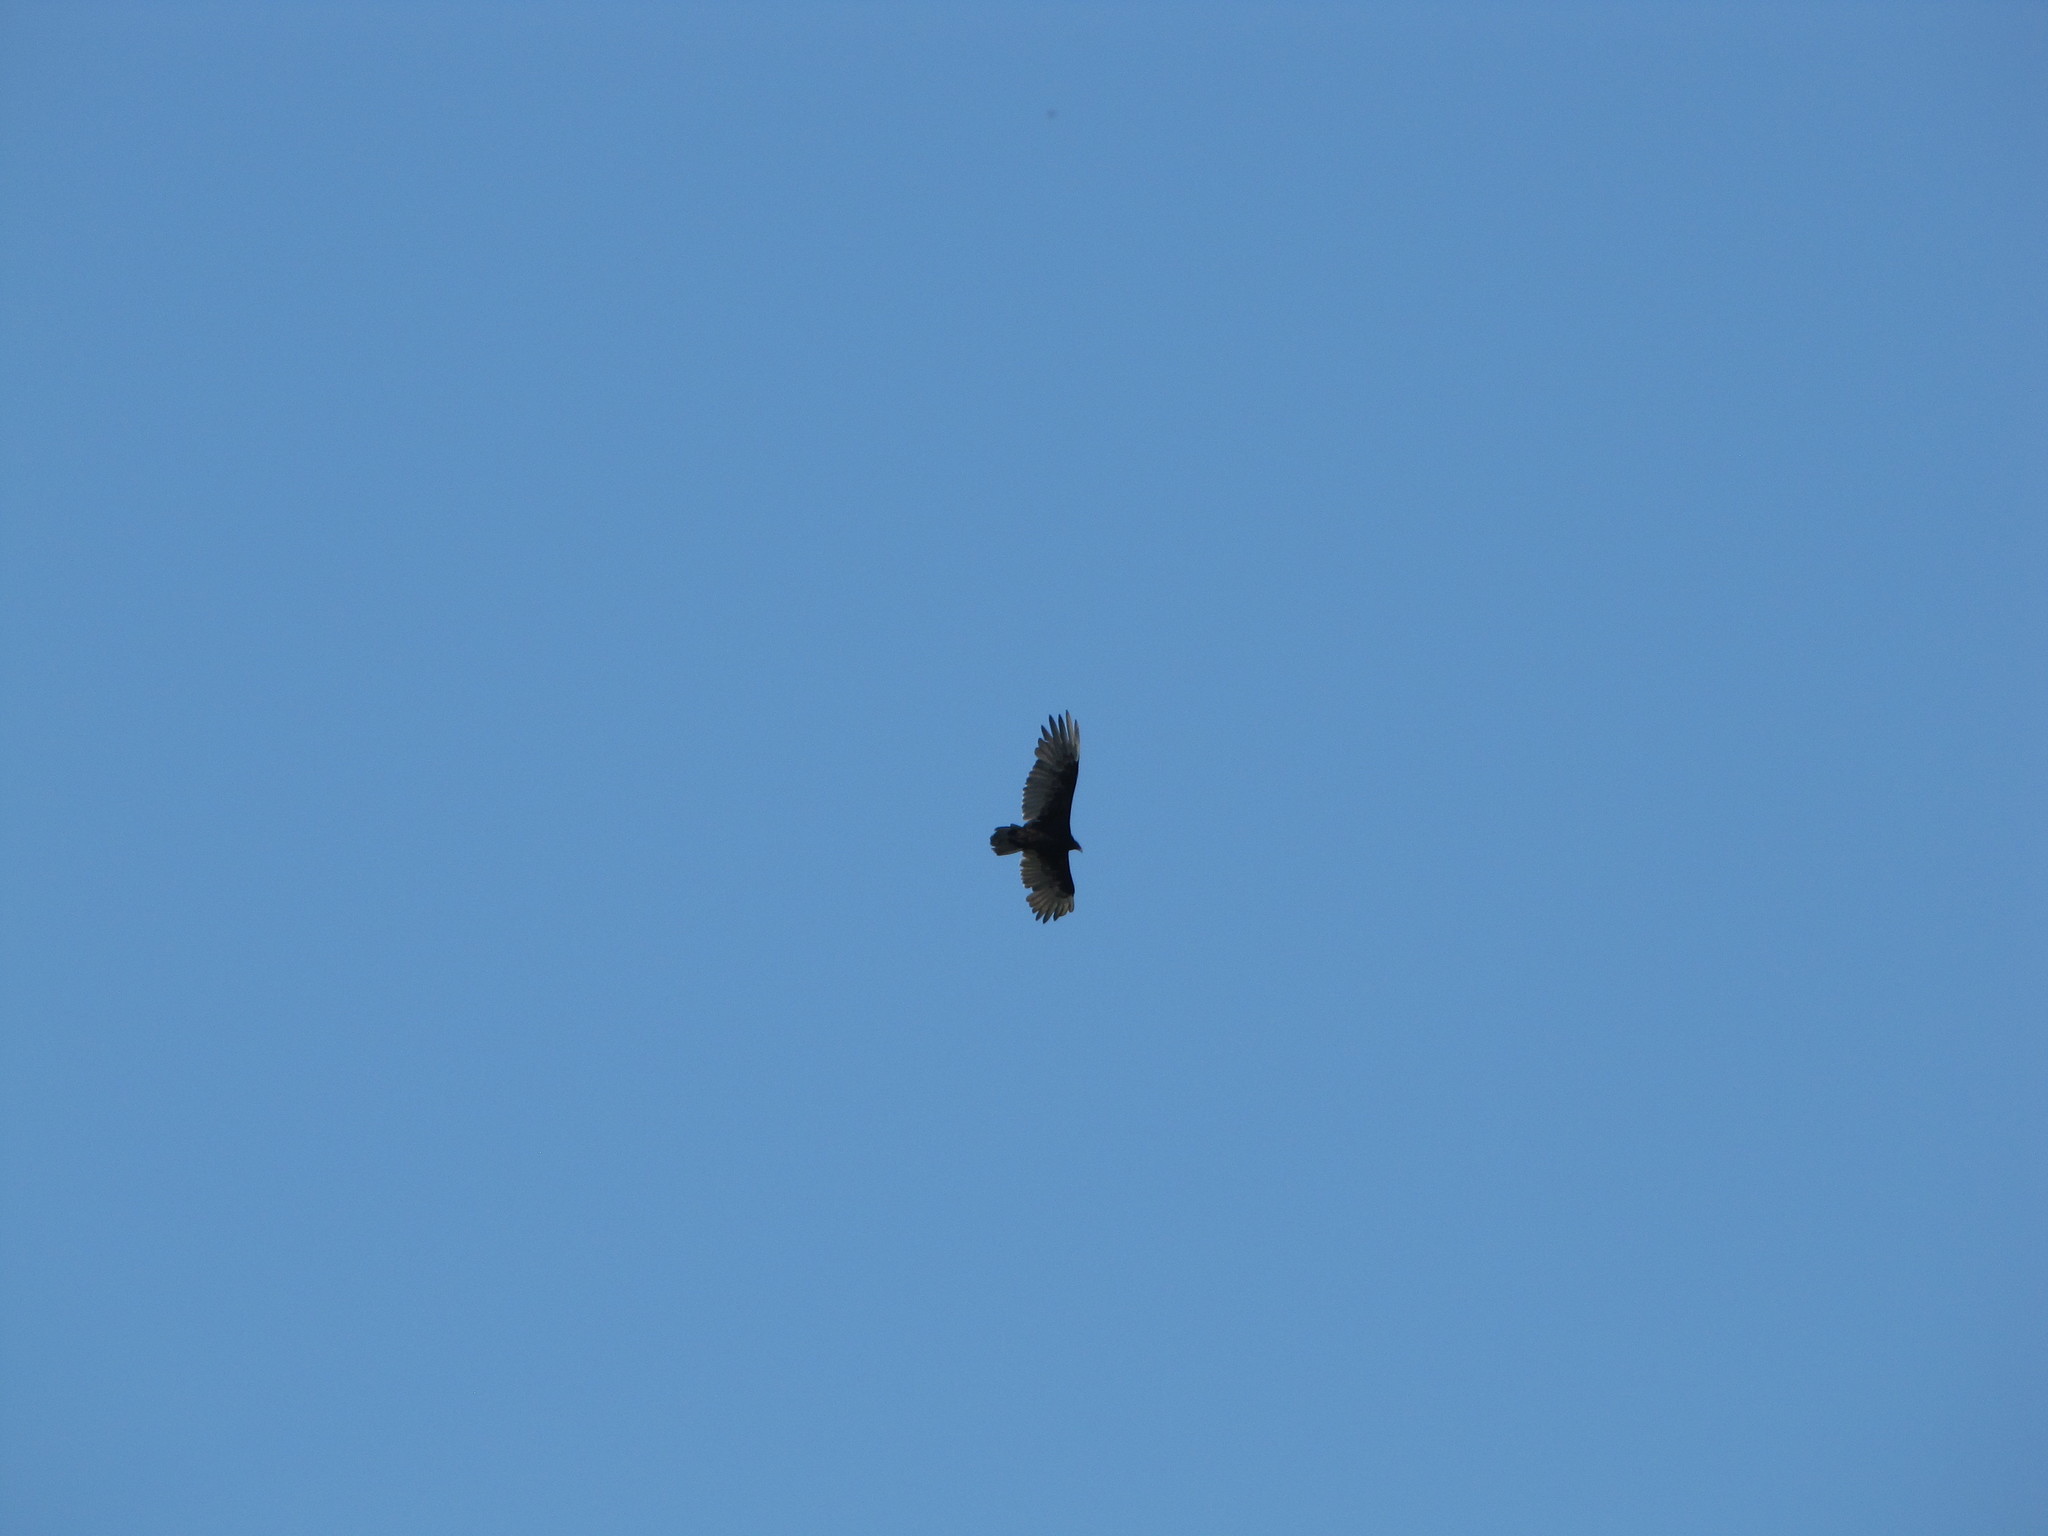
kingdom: Animalia
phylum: Chordata
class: Aves
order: Accipitriformes
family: Cathartidae
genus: Cathartes
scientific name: Cathartes aura
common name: Turkey vulture
